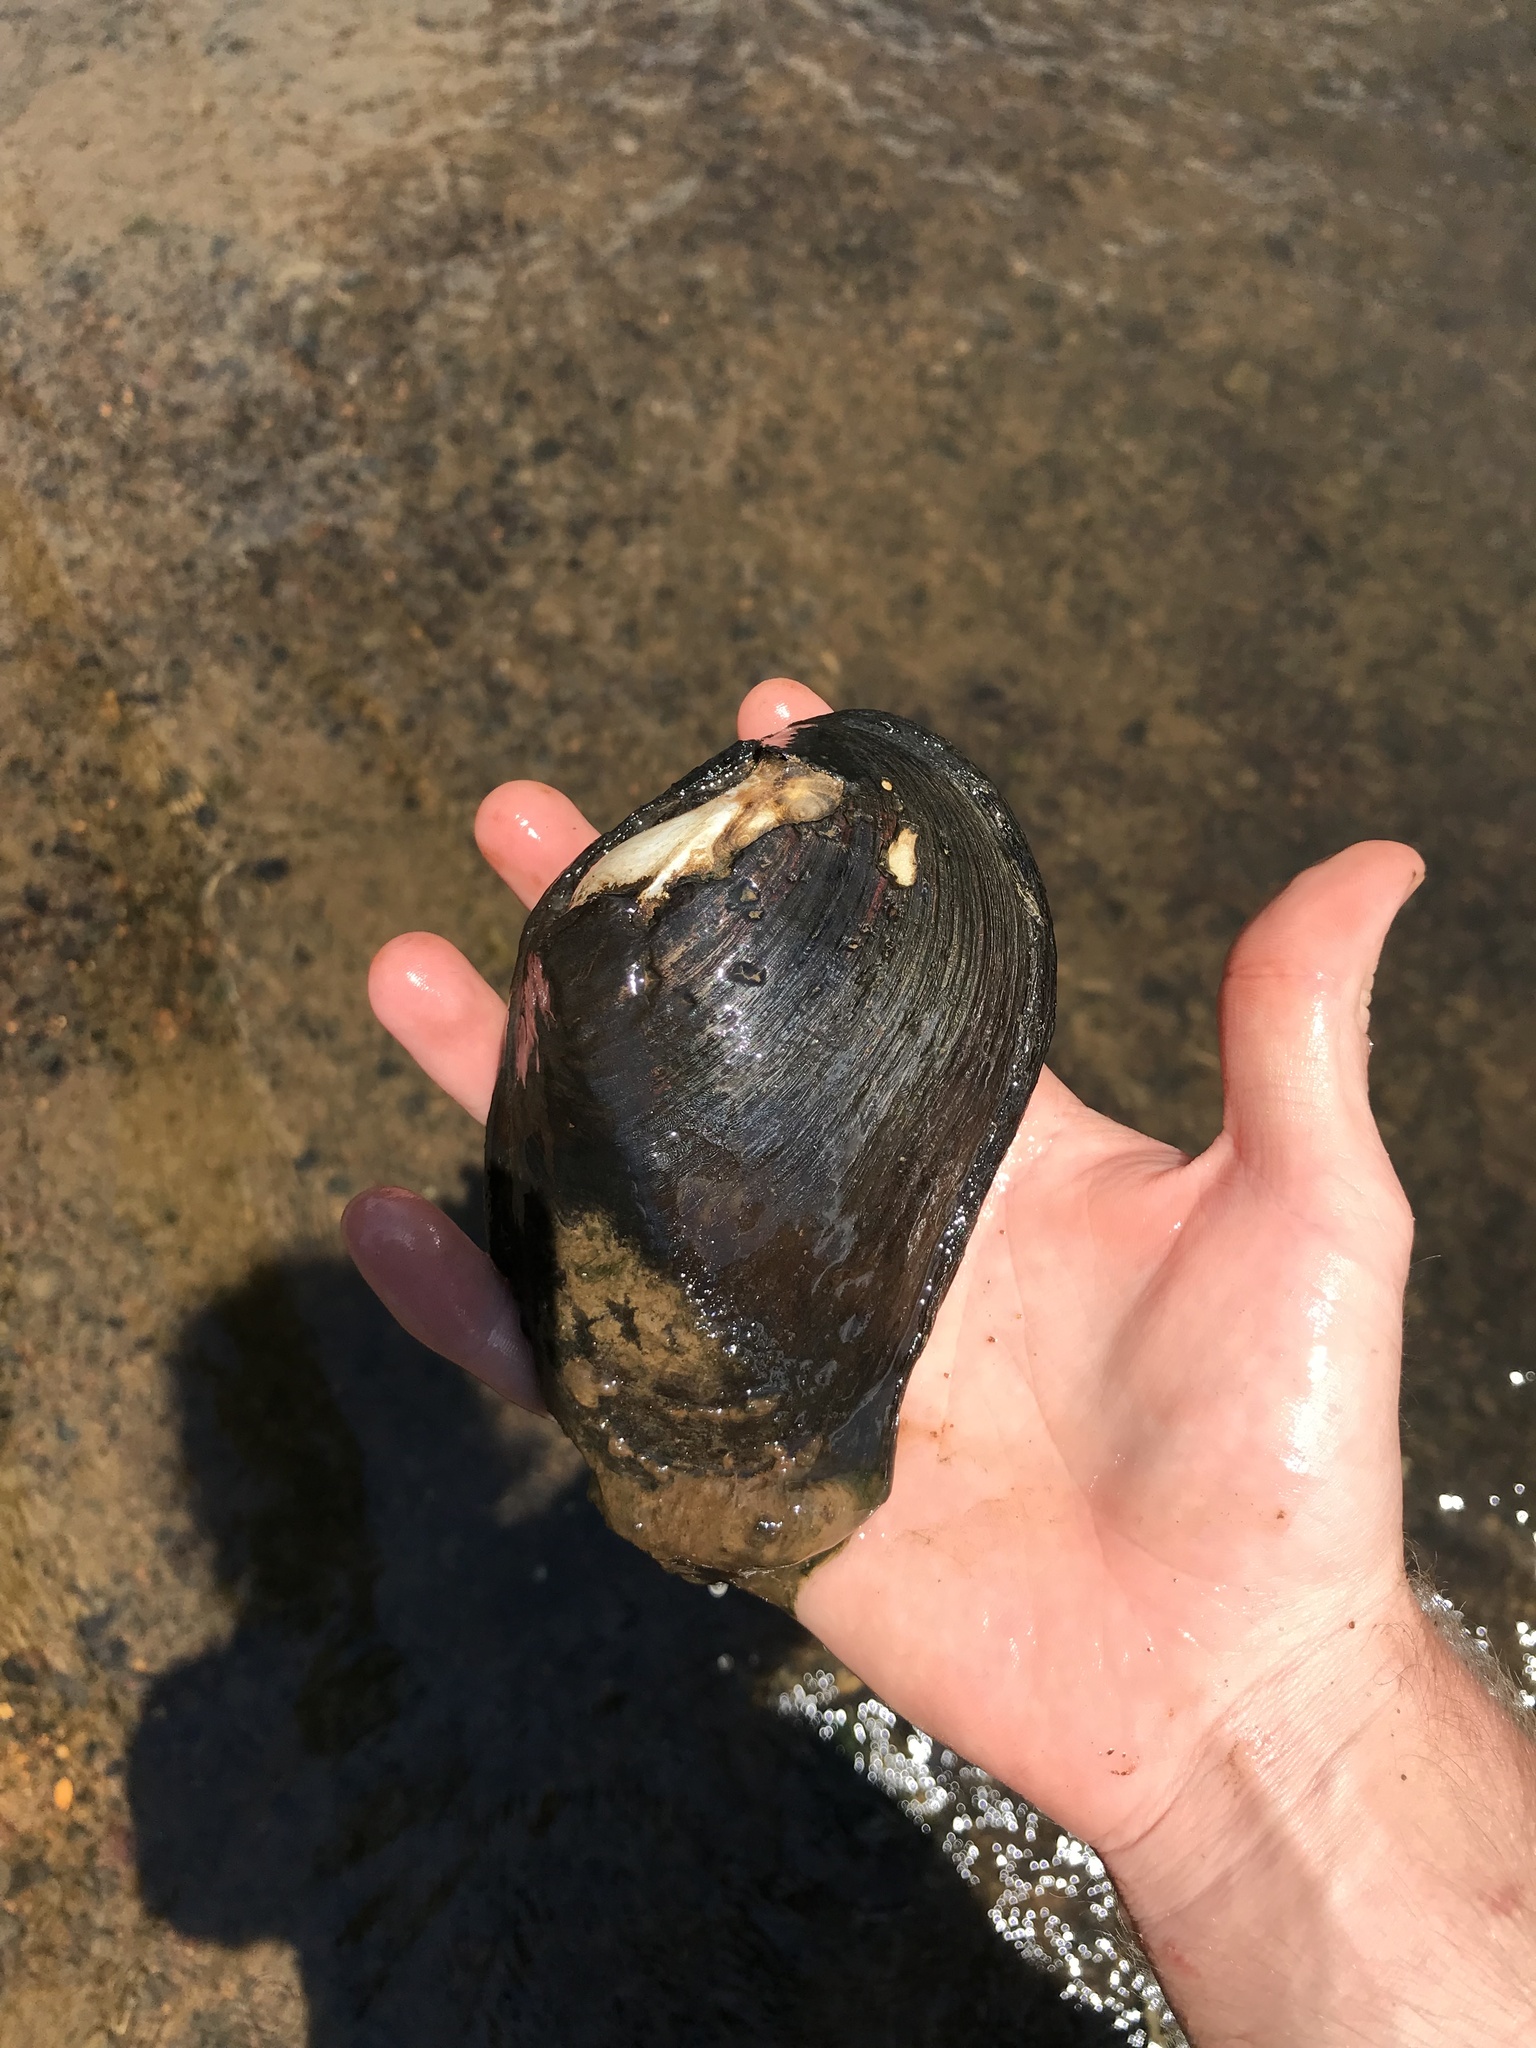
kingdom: Animalia
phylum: Mollusca
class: Bivalvia
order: Unionida
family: Unionidae
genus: Elliptio
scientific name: Elliptio crassidens
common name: Blue ham
